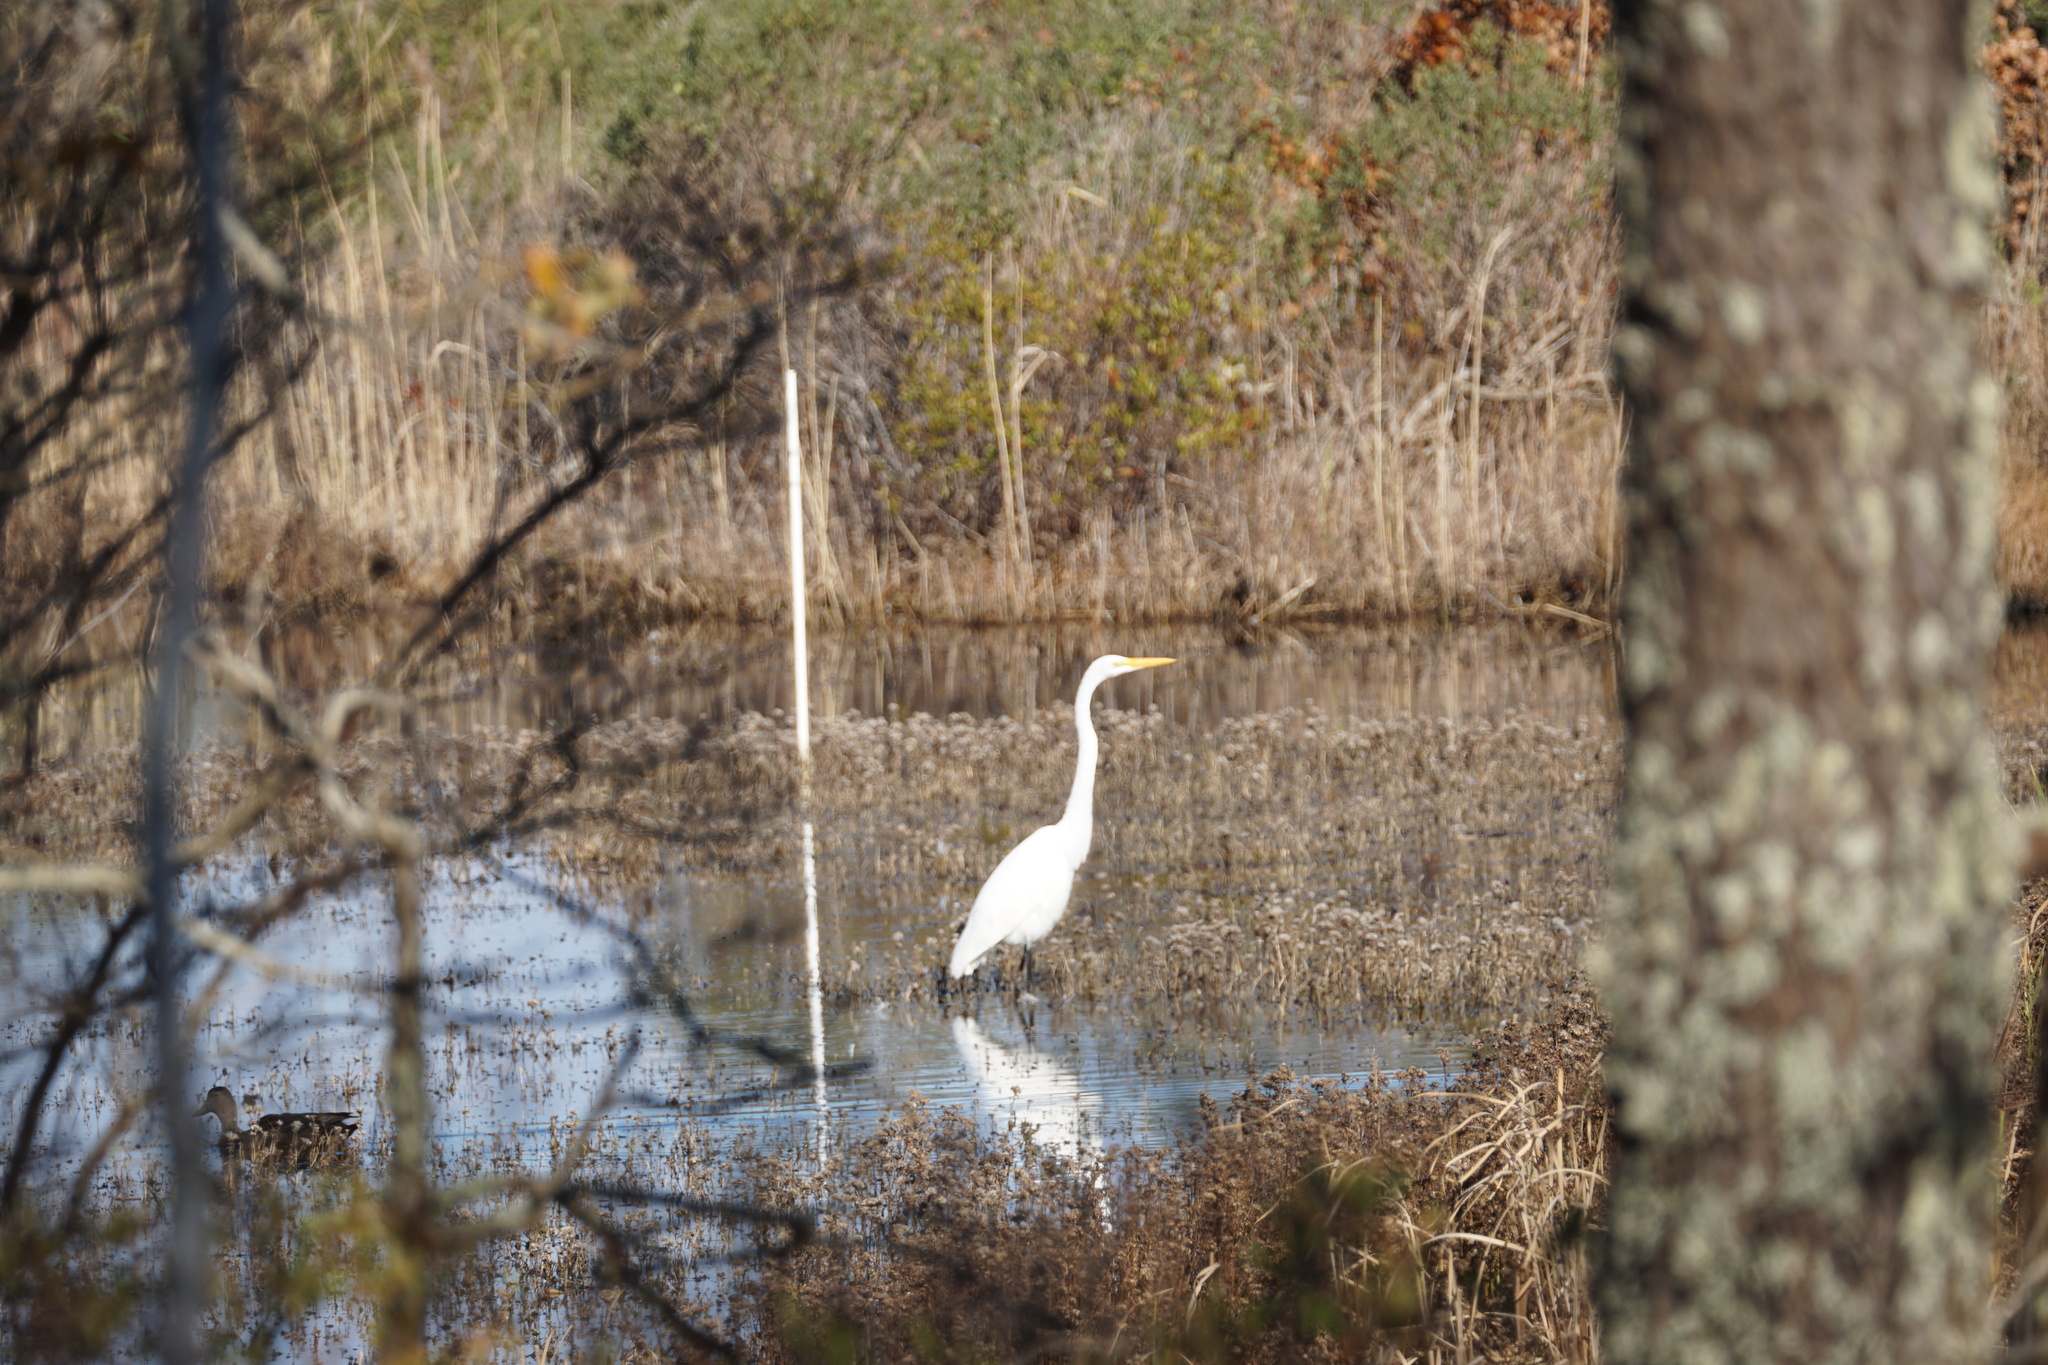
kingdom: Animalia
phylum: Chordata
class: Aves
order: Pelecaniformes
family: Ardeidae
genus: Ardea
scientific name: Ardea alba
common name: Great egret
